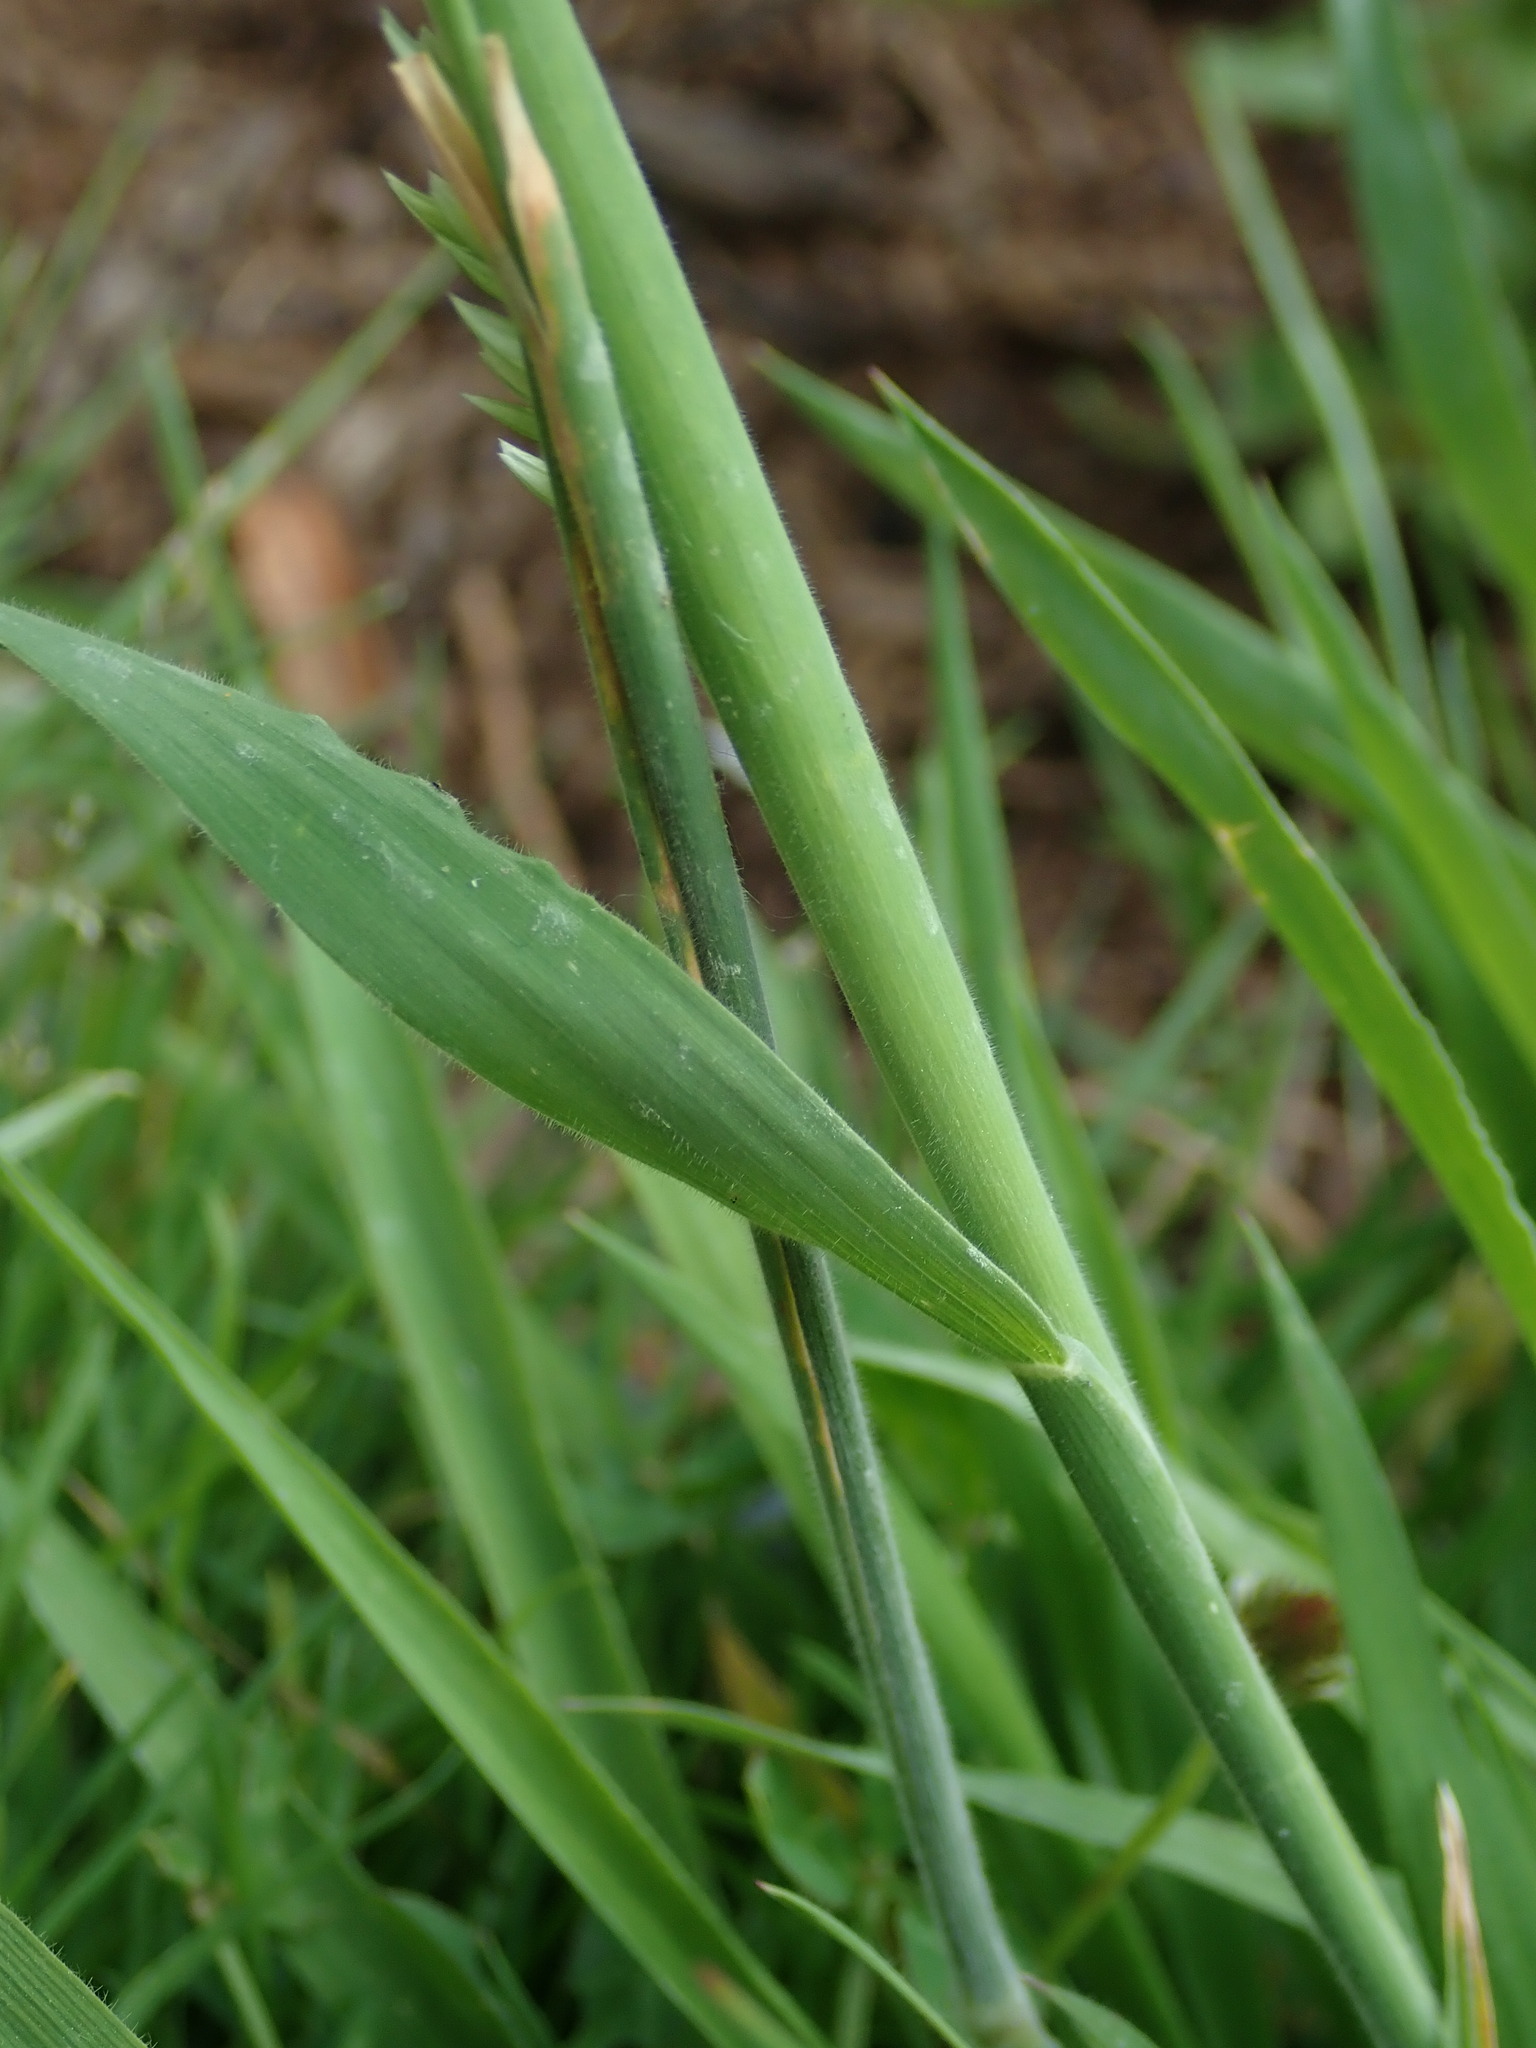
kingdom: Plantae
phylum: Tracheophyta
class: Liliopsida
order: Poales
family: Poaceae
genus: Holcus
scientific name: Holcus lanatus
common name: Yorkshire-fog
